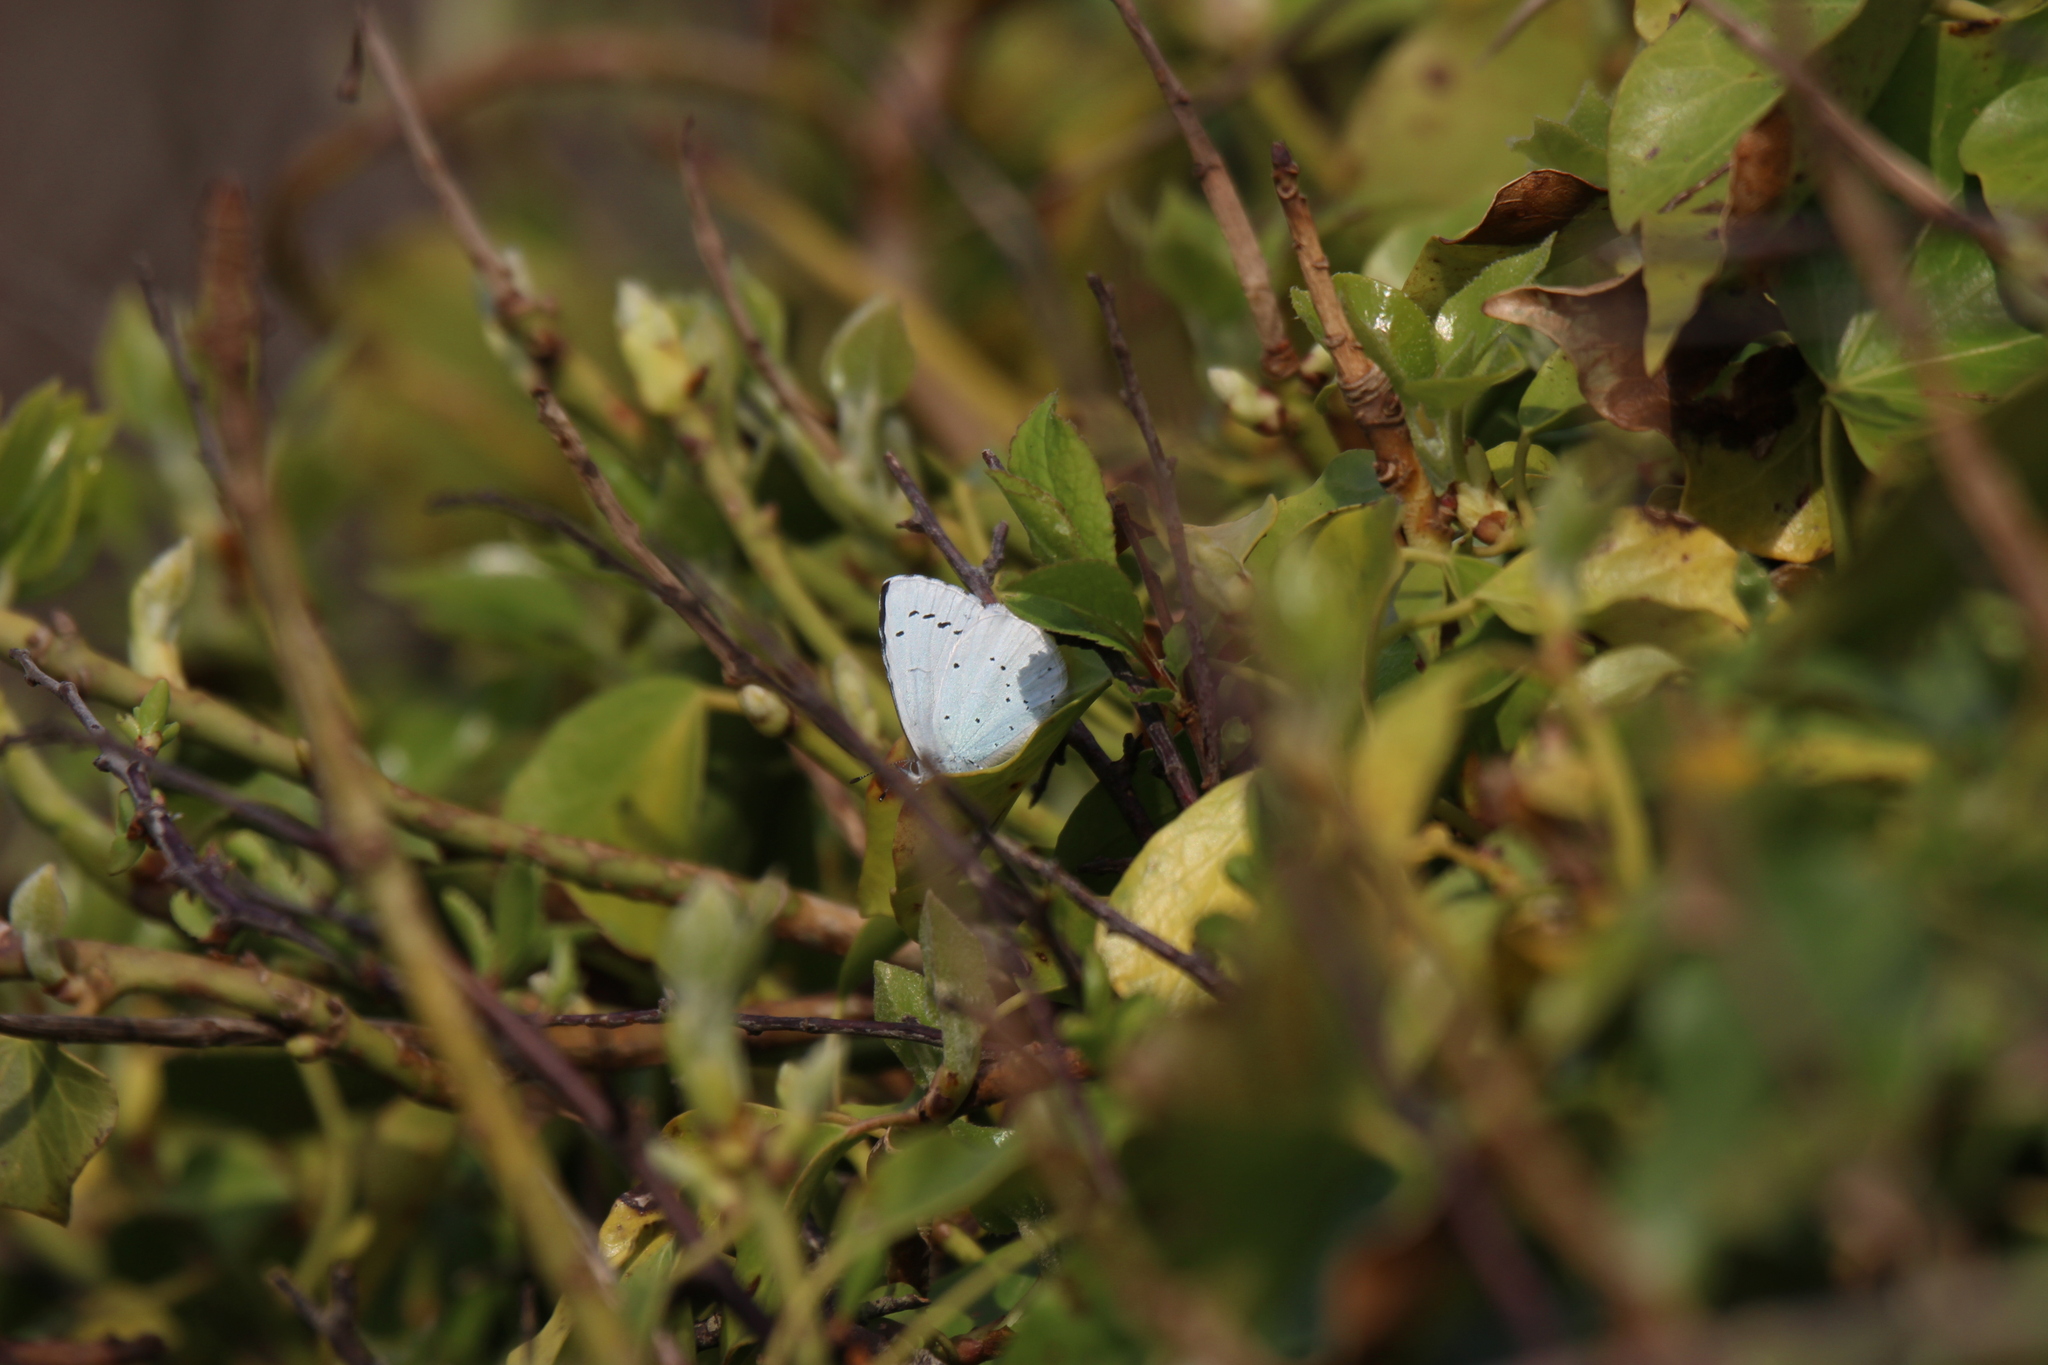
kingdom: Animalia
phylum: Arthropoda
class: Insecta
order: Lepidoptera
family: Lycaenidae
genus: Celastrina
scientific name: Celastrina argiolus
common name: Holly blue
